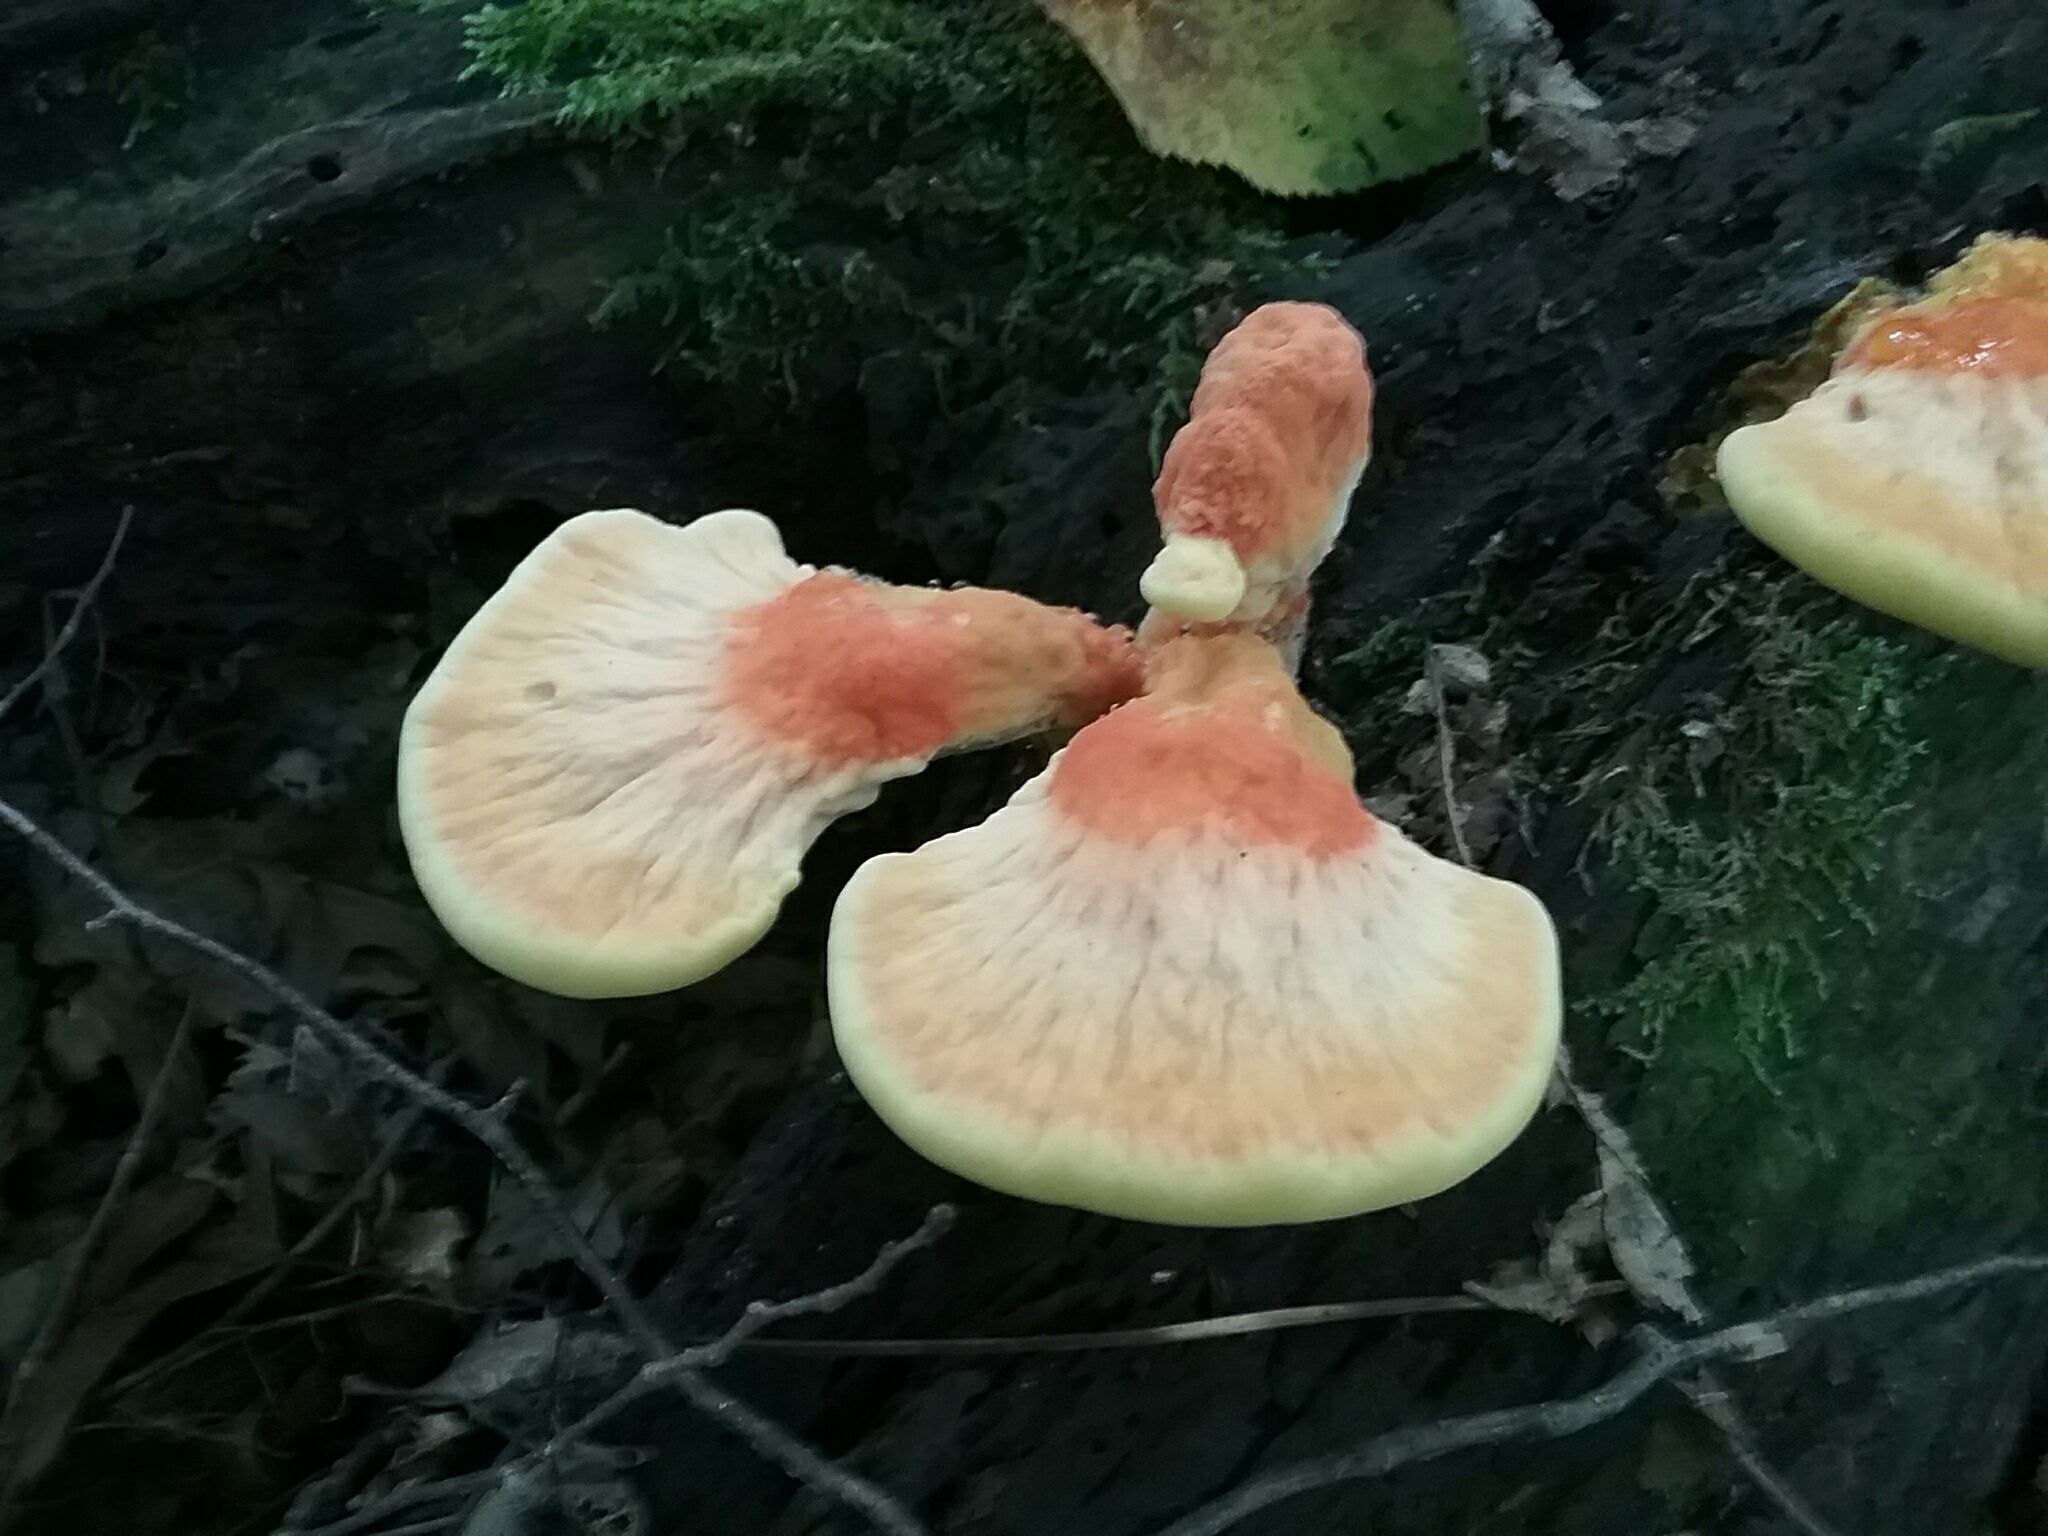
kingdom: Fungi
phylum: Basidiomycota
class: Agaricomycetes
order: Polyporales
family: Laetiporaceae
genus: Laetiporus
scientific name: Laetiporus sulphureus
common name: Chicken of the woods
